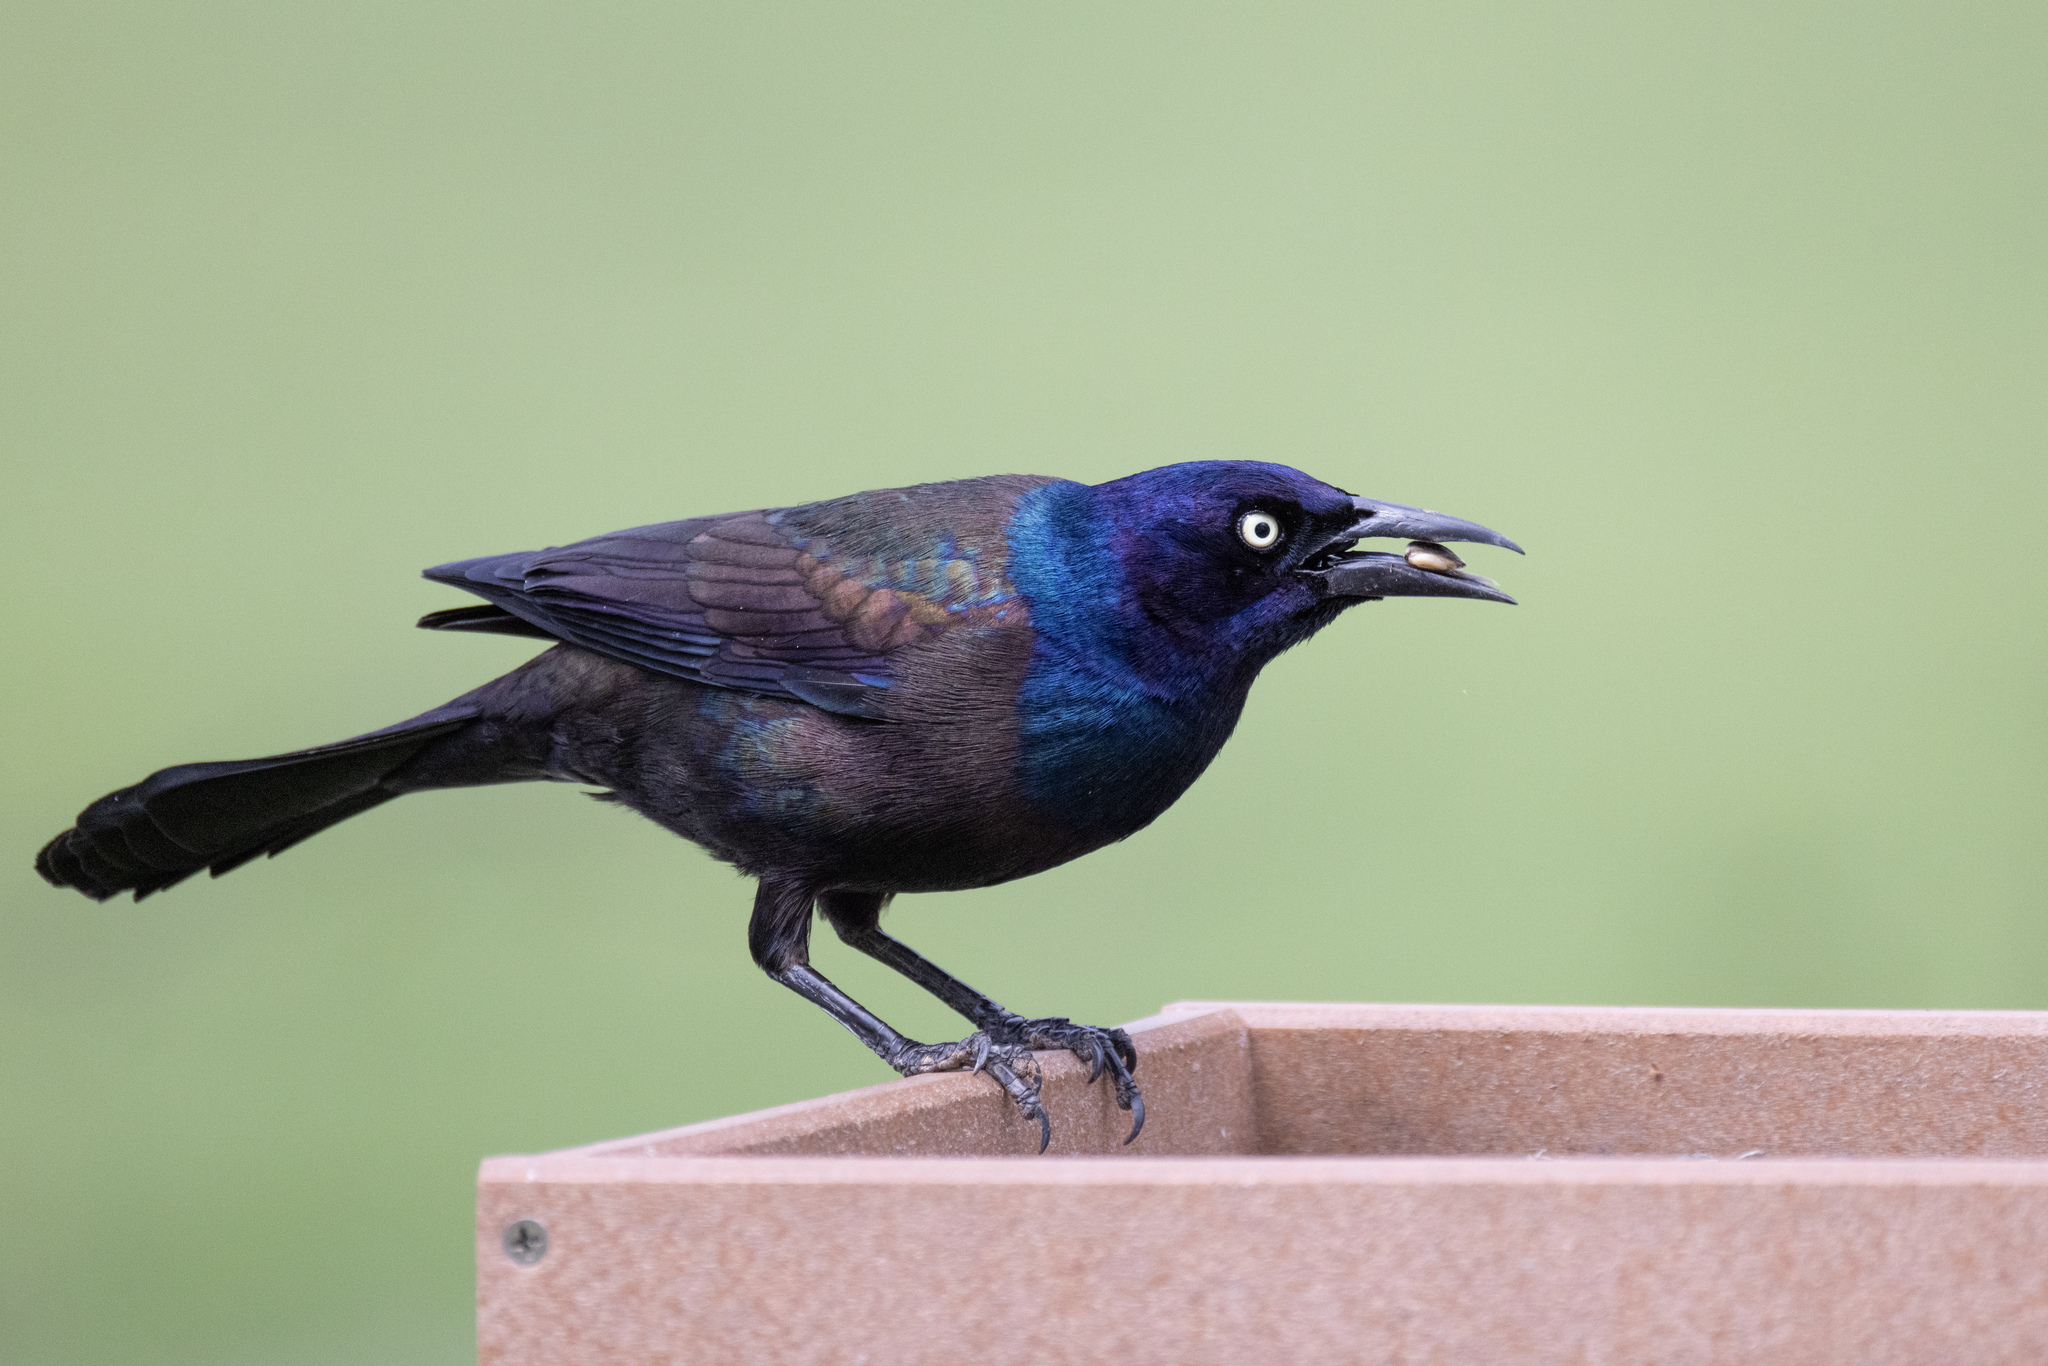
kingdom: Animalia
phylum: Chordata
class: Aves
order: Passeriformes
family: Icteridae
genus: Quiscalus
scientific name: Quiscalus quiscula
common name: Common grackle
